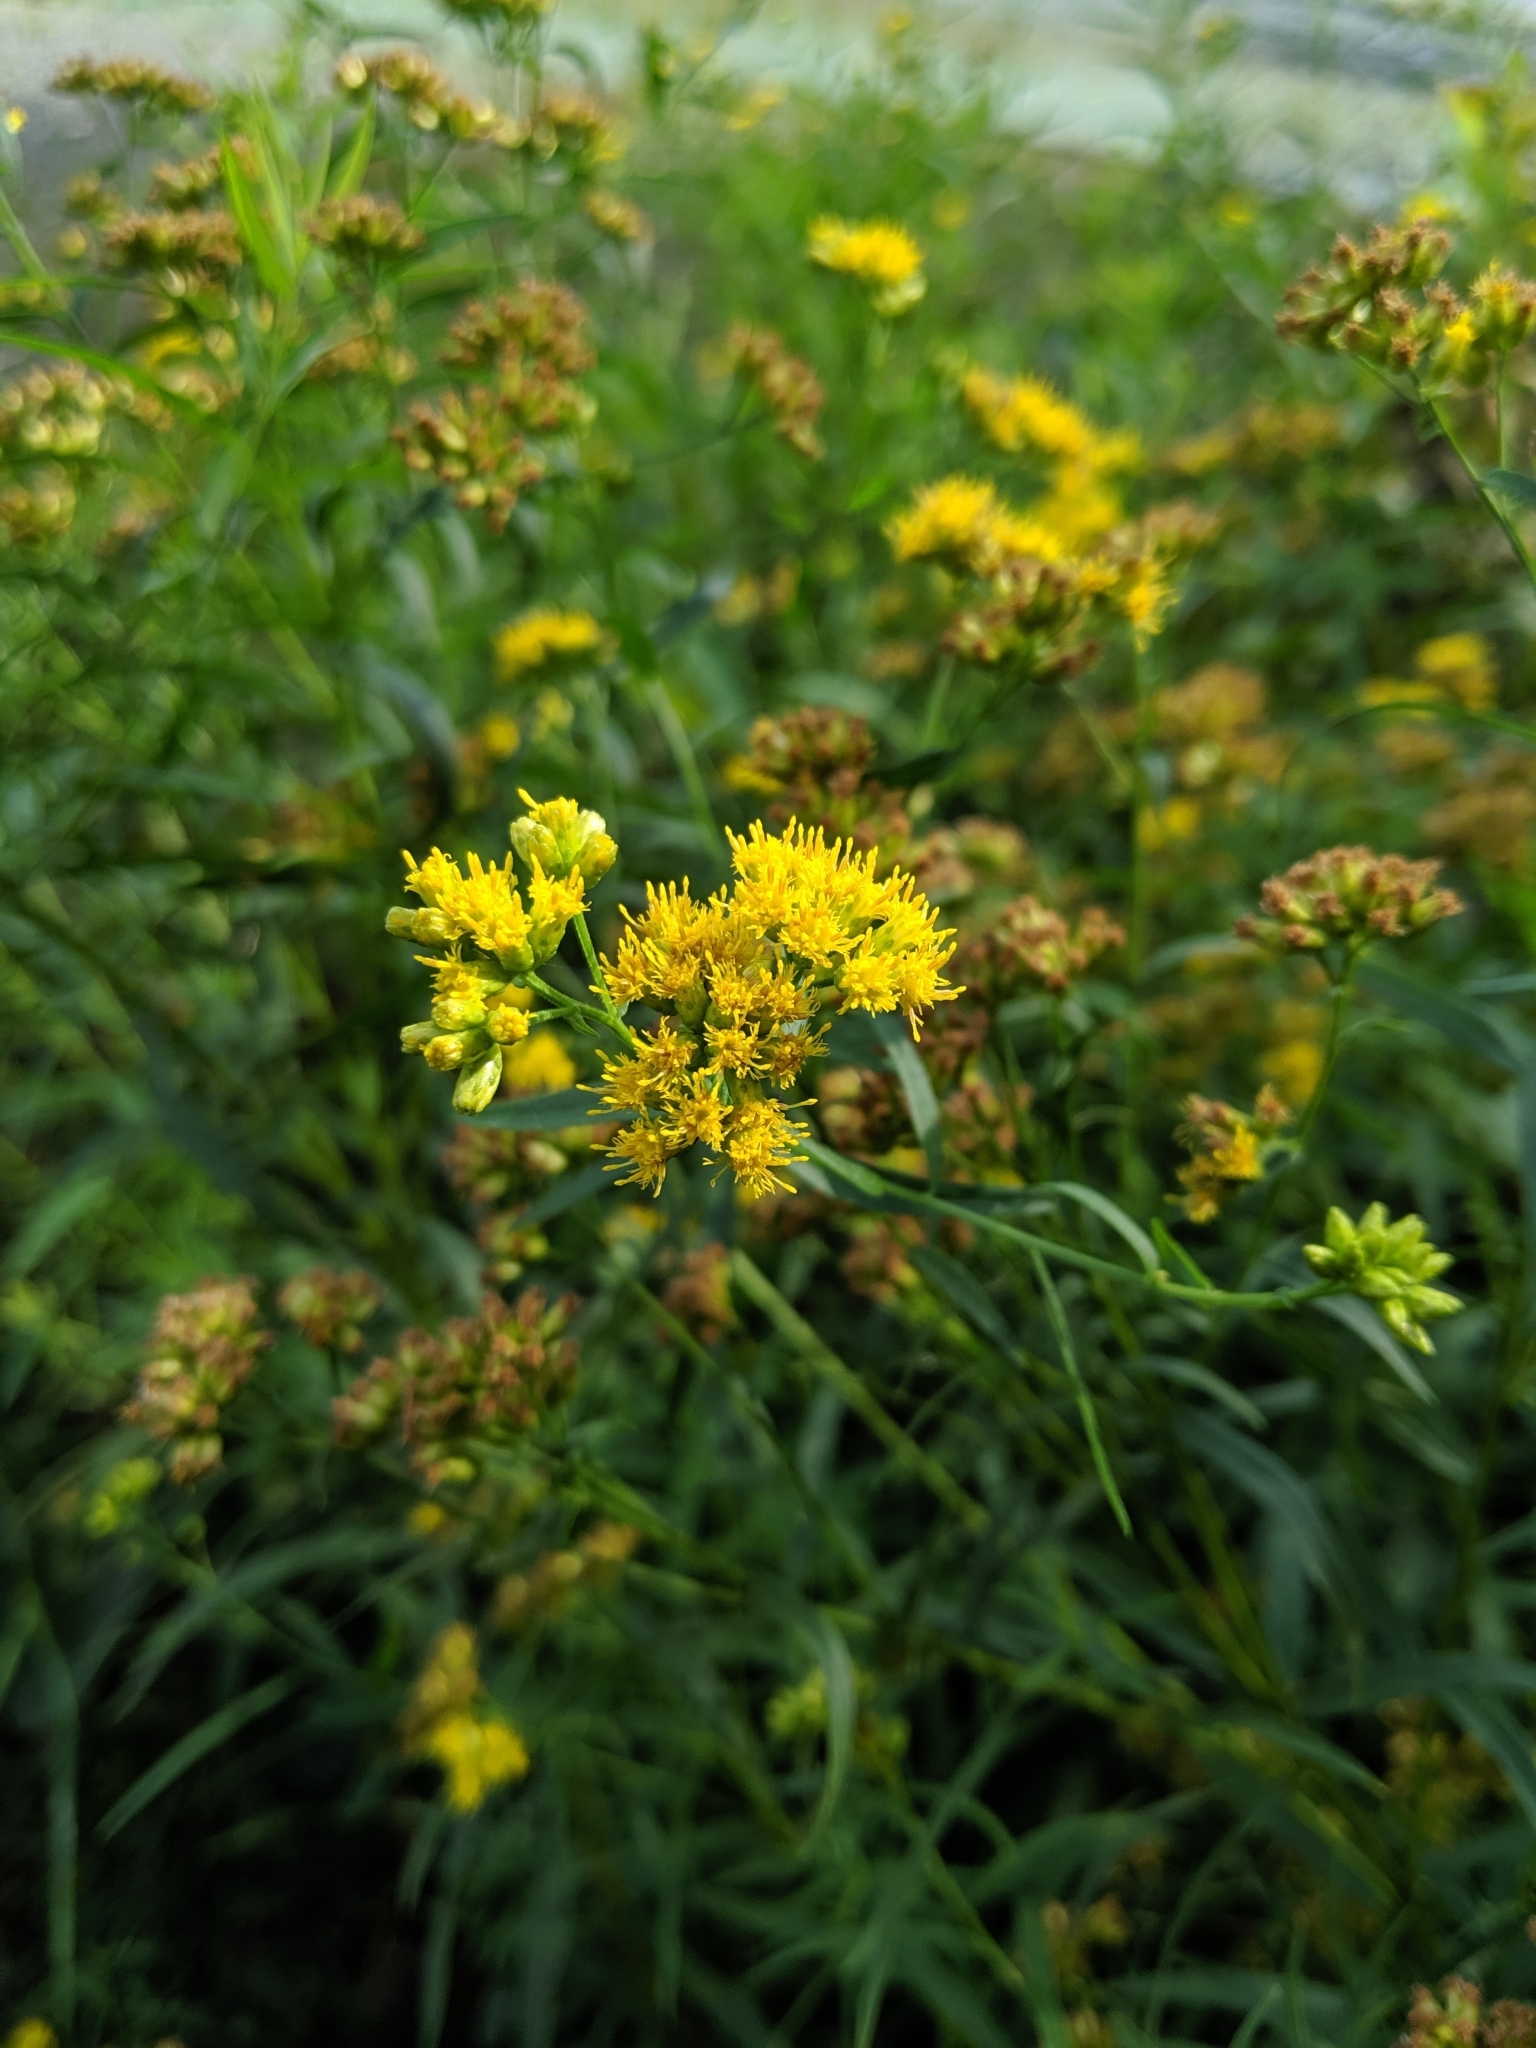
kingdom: Plantae
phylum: Tracheophyta
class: Magnoliopsida
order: Asterales
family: Asteraceae
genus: Euthamia
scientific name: Euthamia graminifolia
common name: Common goldentop
